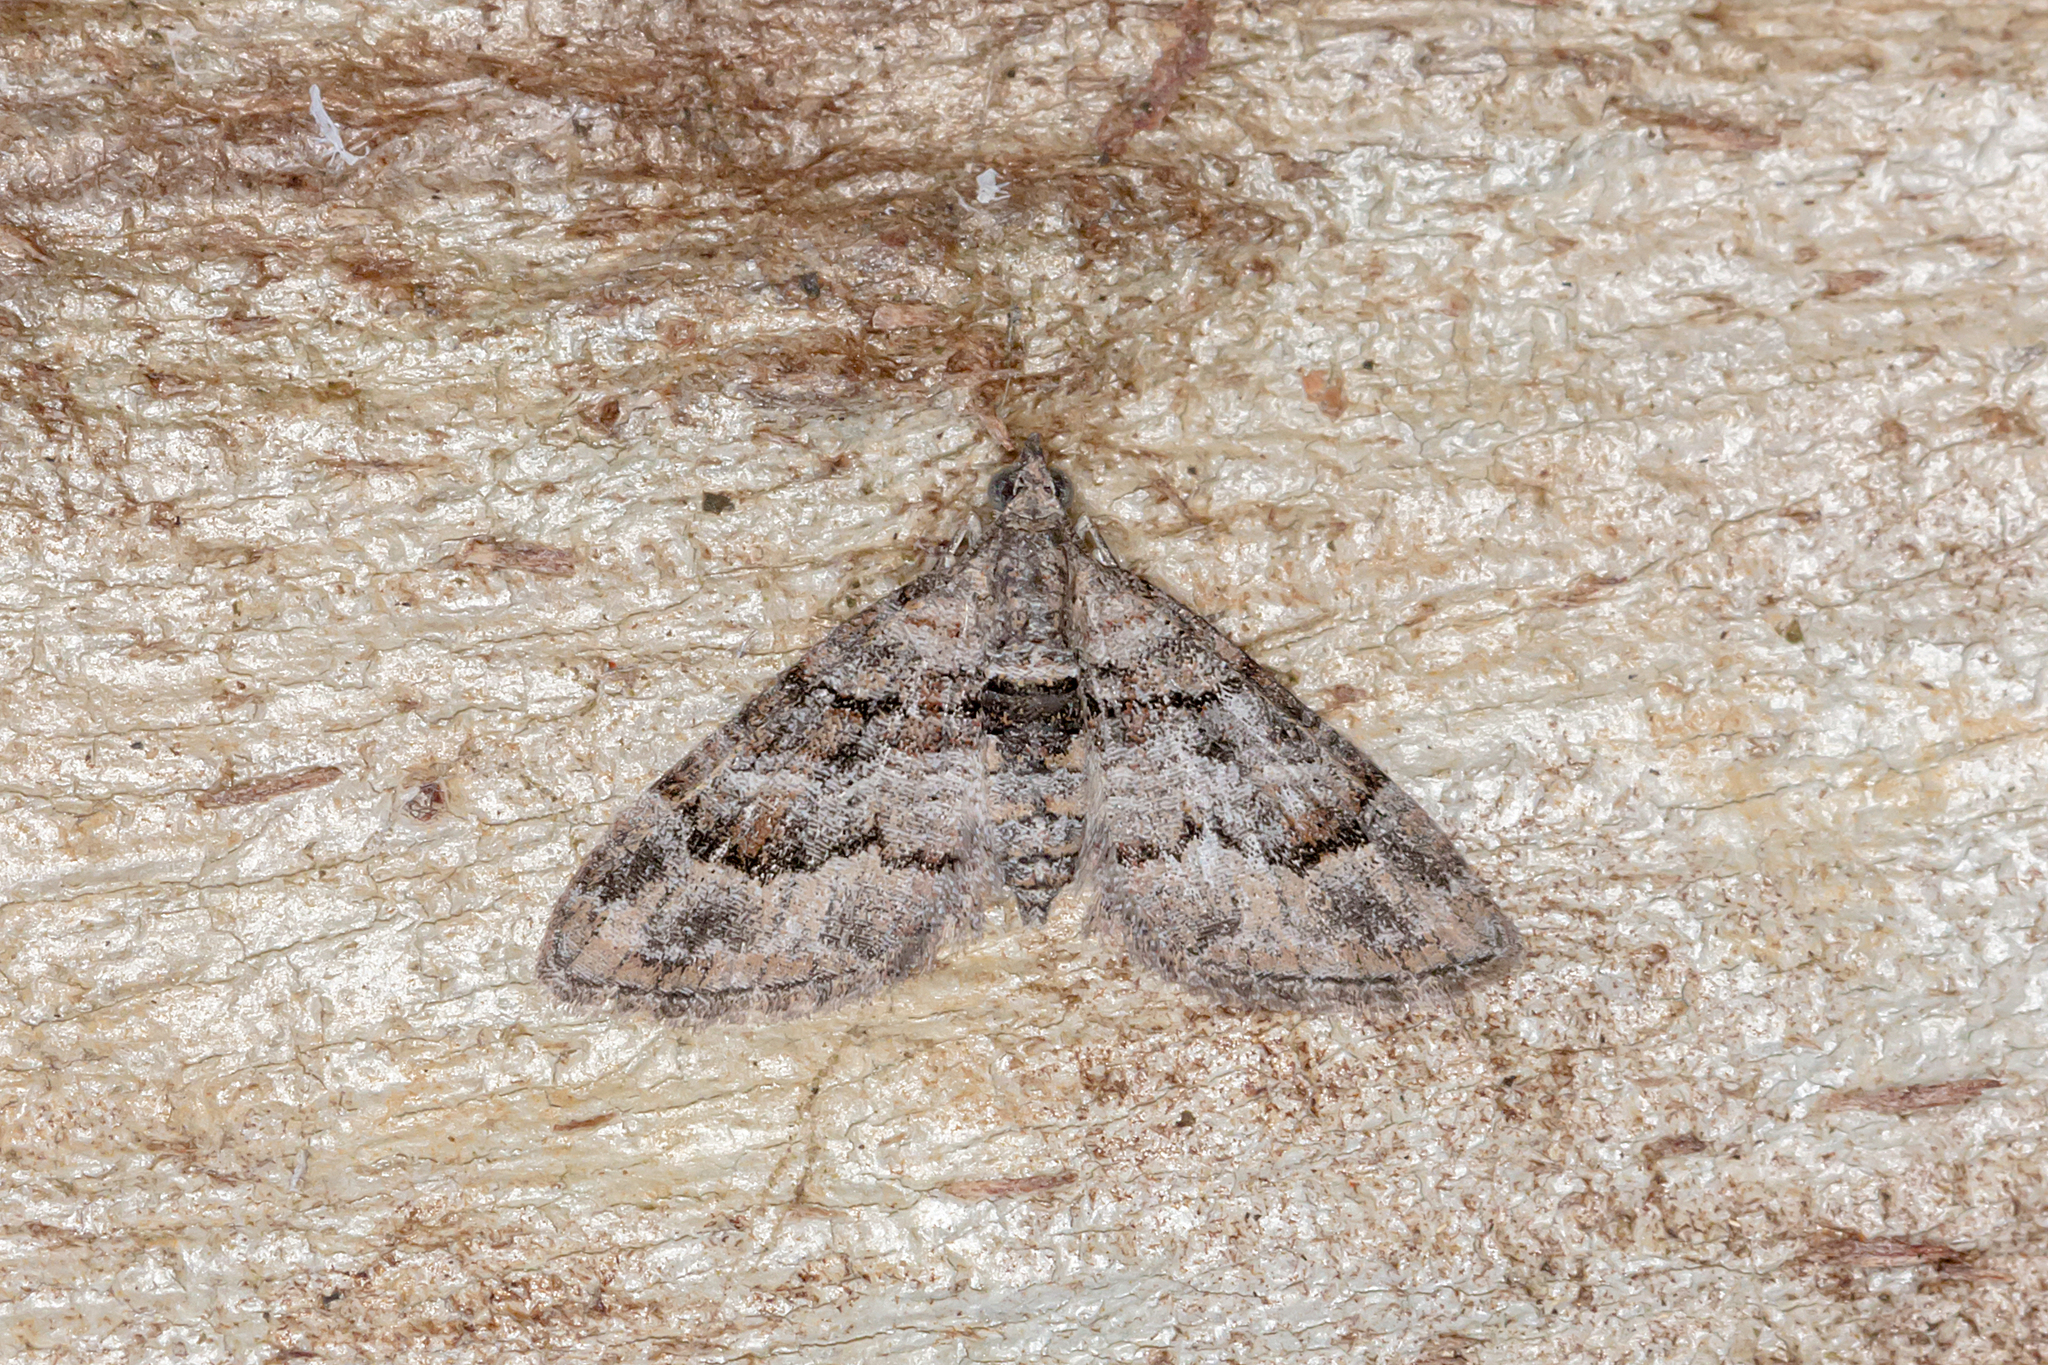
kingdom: Animalia
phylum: Arthropoda
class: Insecta
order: Lepidoptera
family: Geometridae
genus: Phrissogonus
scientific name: Phrissogonus laticostata
